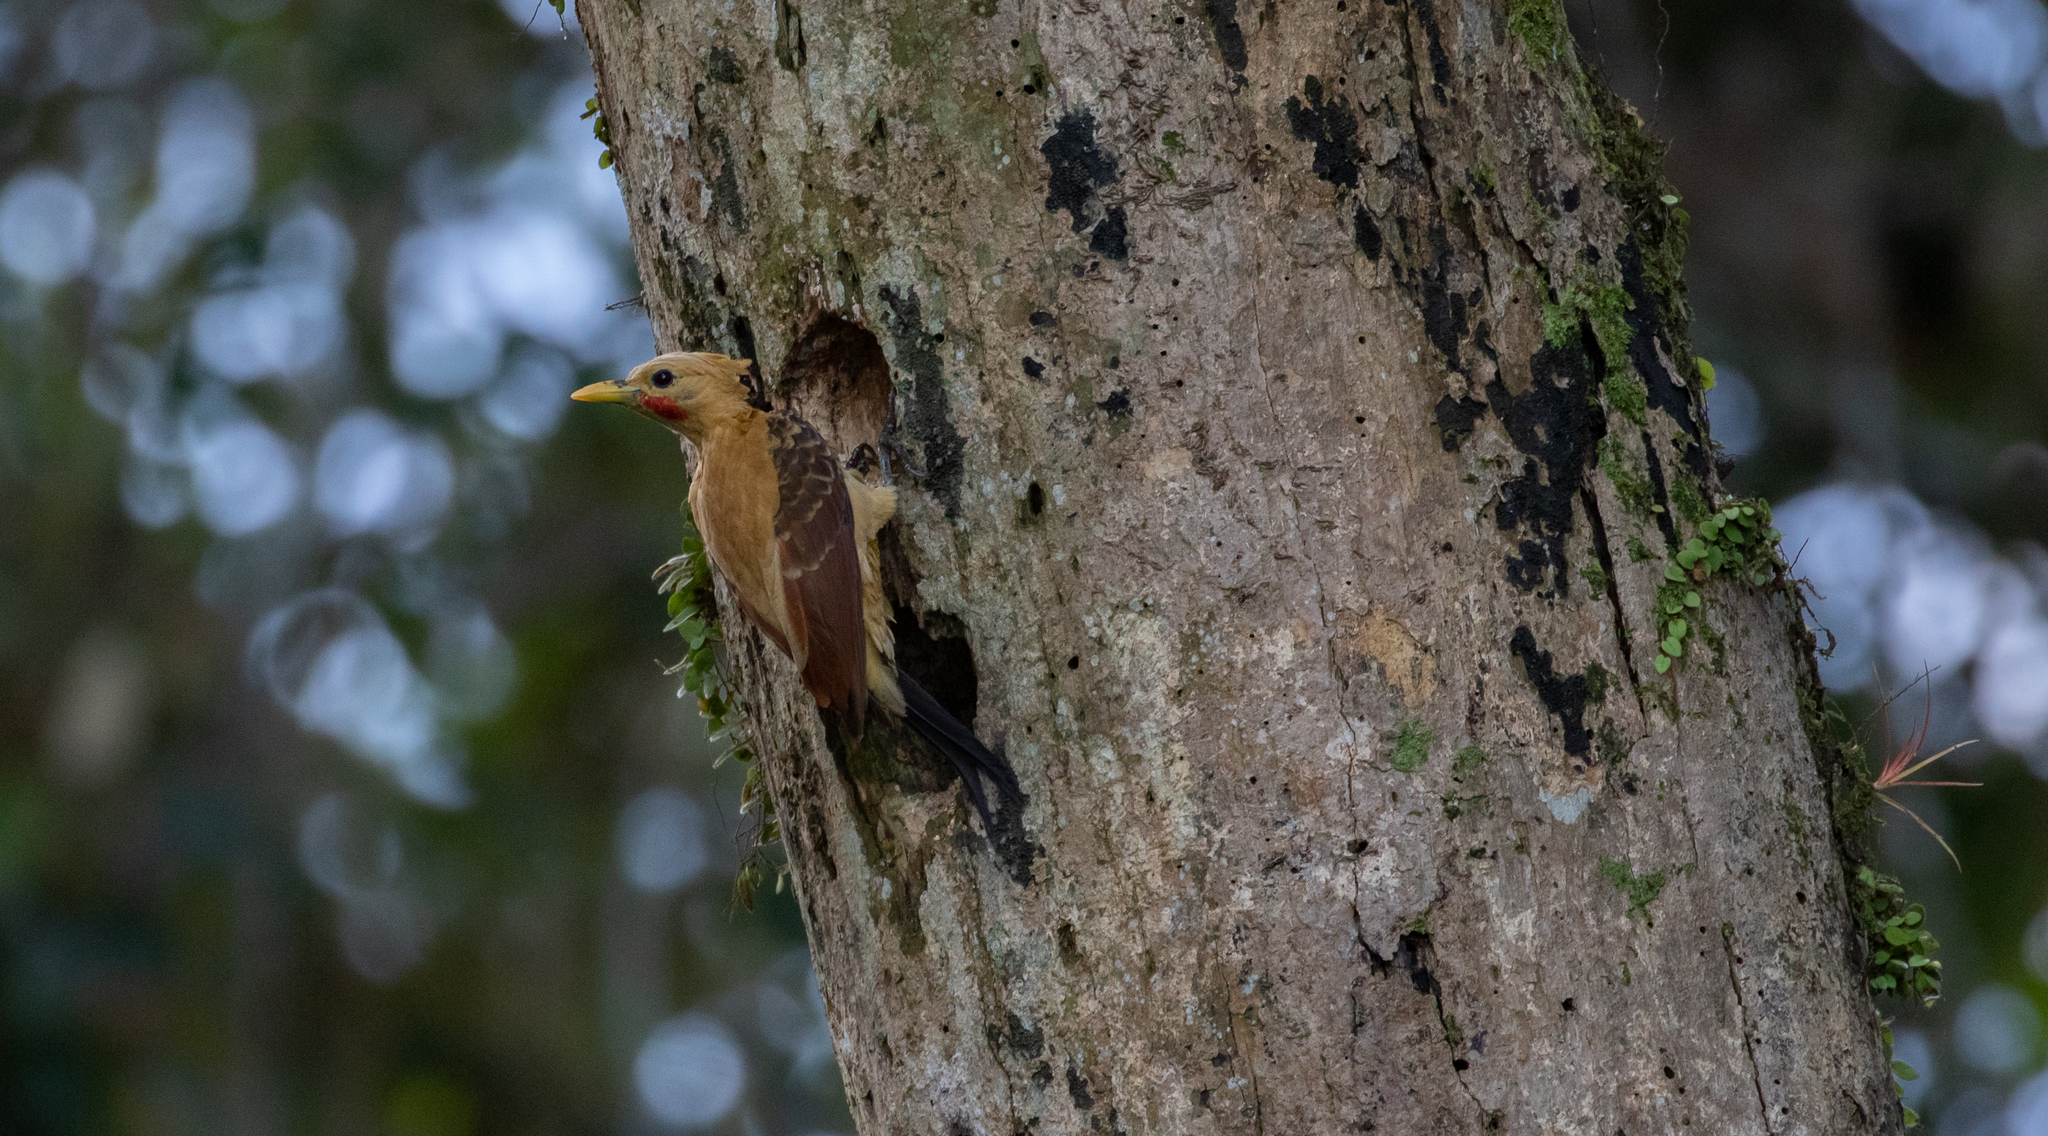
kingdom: Animalia
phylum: Chordata
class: Aves
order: Piciformes
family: Picidae
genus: Celeus
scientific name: Celeus flavus
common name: Cream-colored woodpecker
